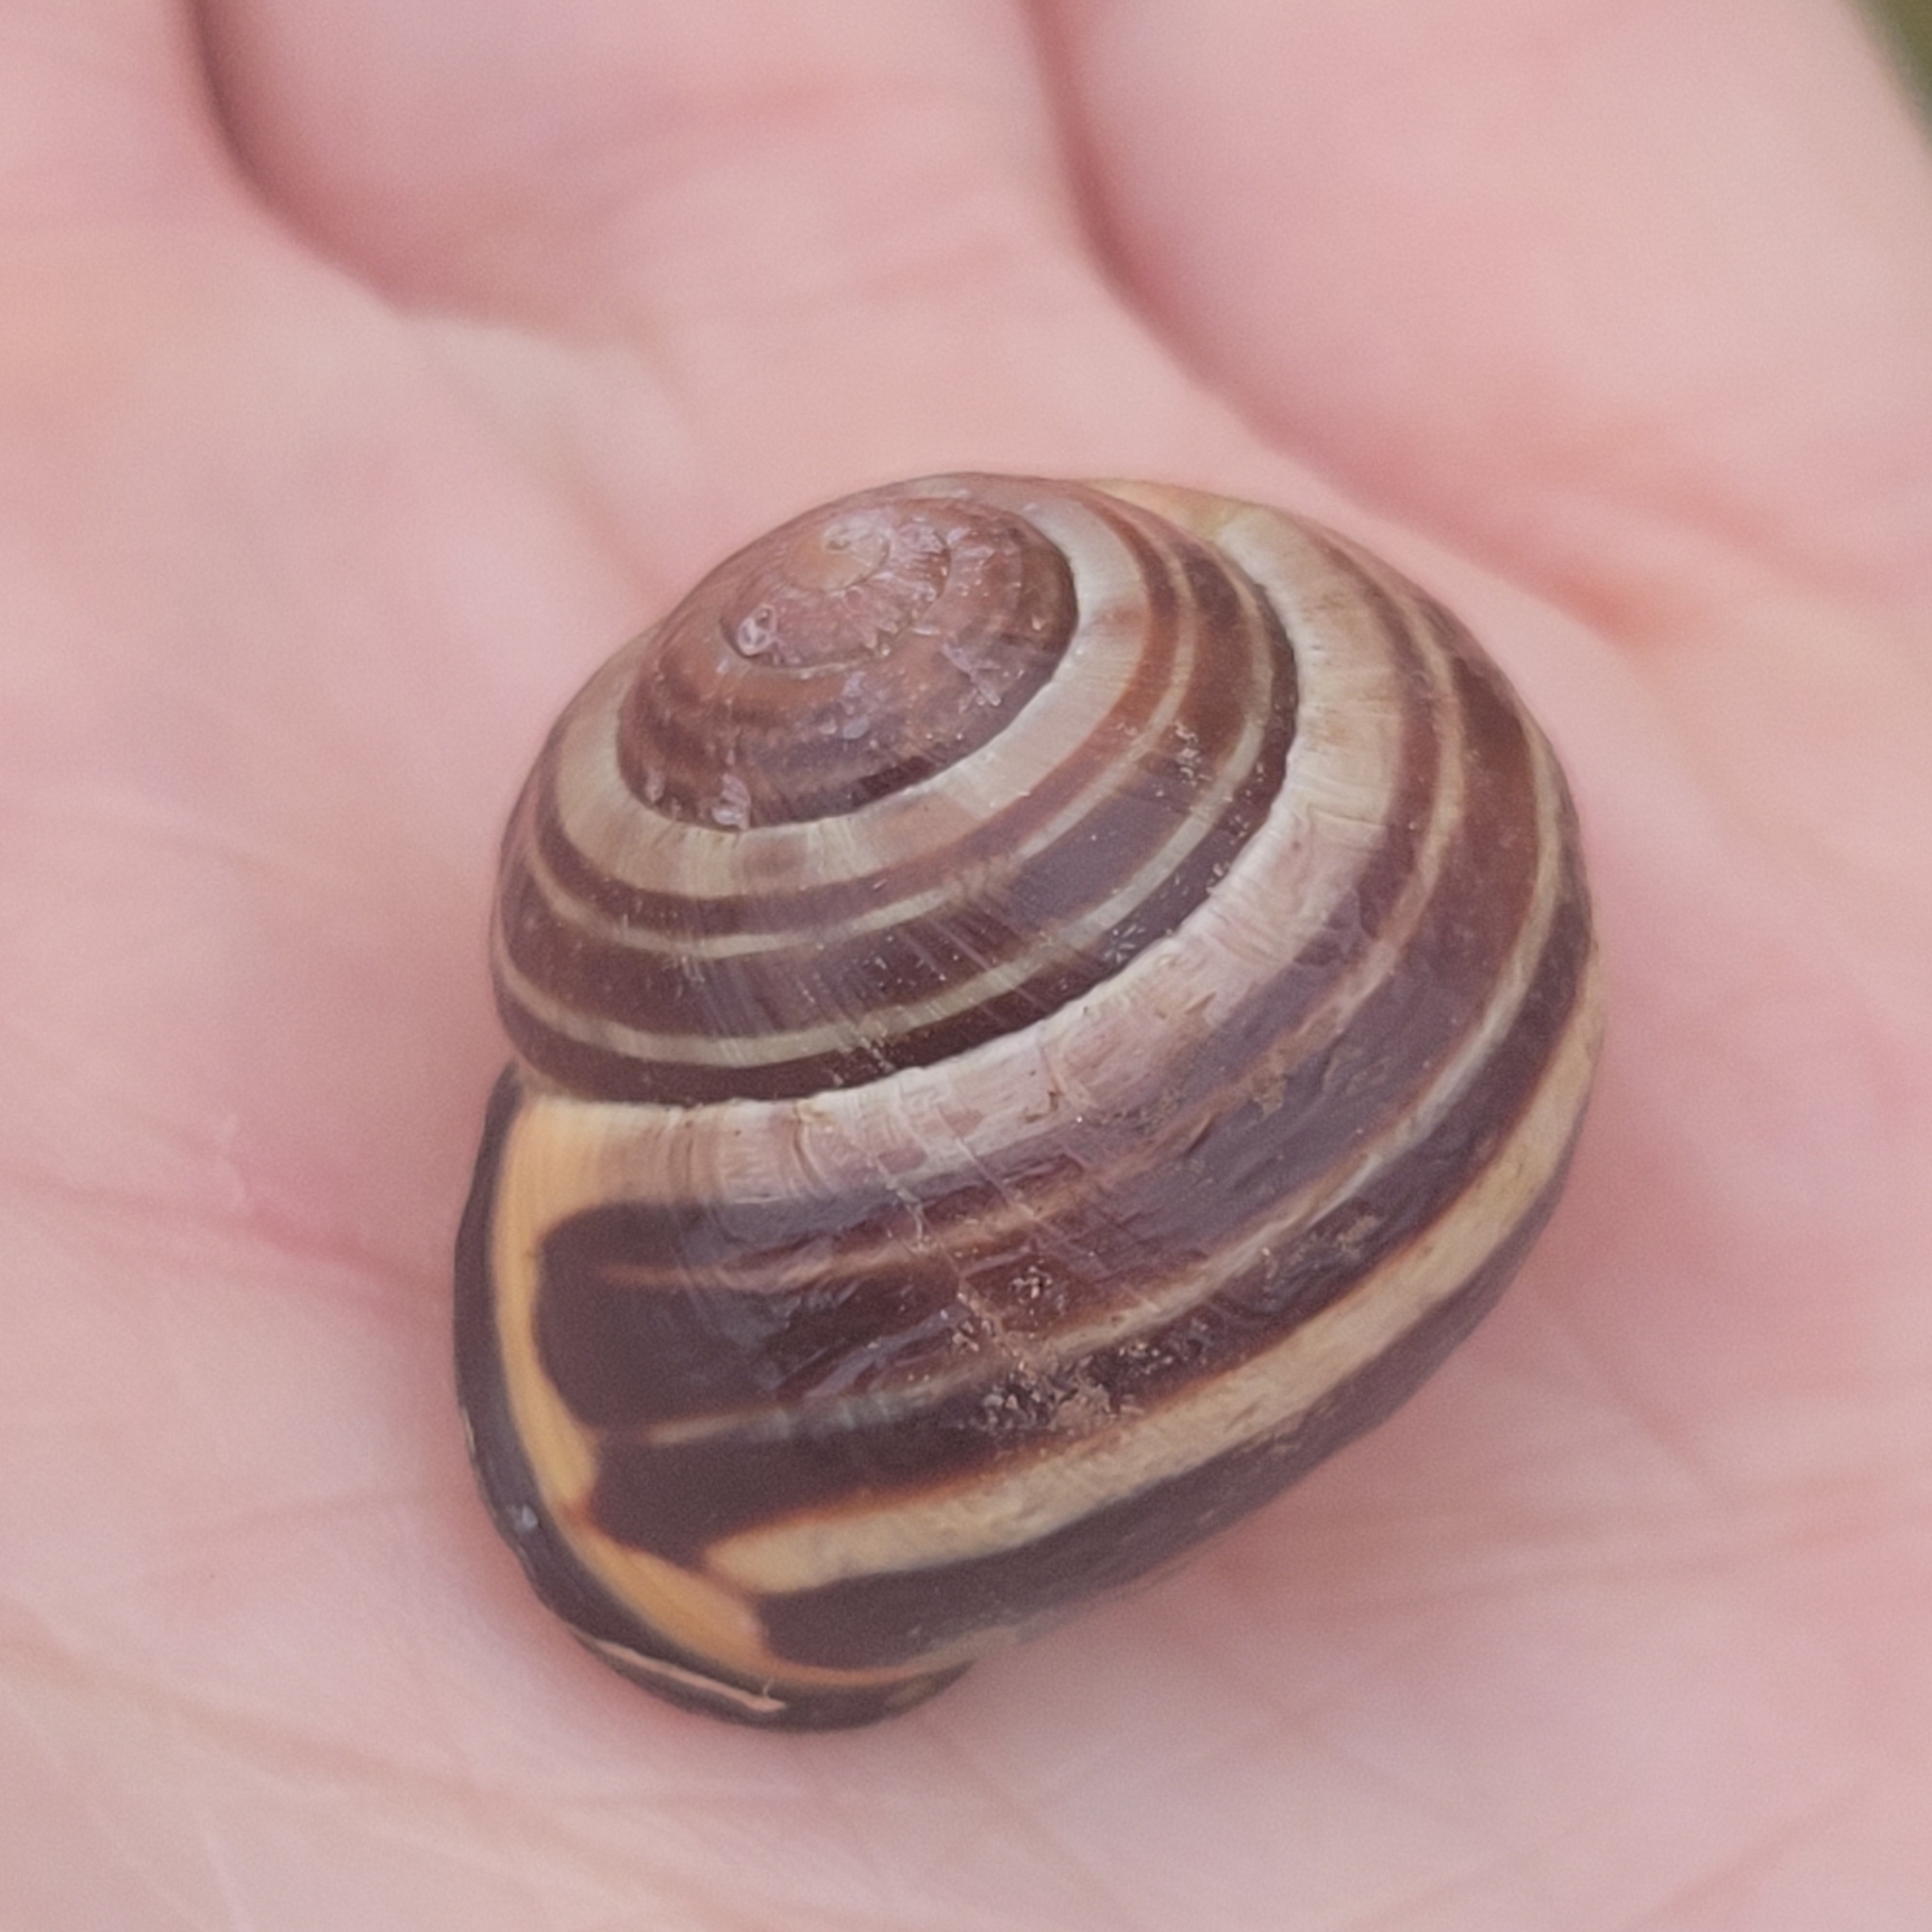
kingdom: Animalia
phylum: Mollusca
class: Gastropoda
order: Stylommatophora
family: Helicidae
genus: Cepaea
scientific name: Cepaea nemoralis
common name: Grovesnail
